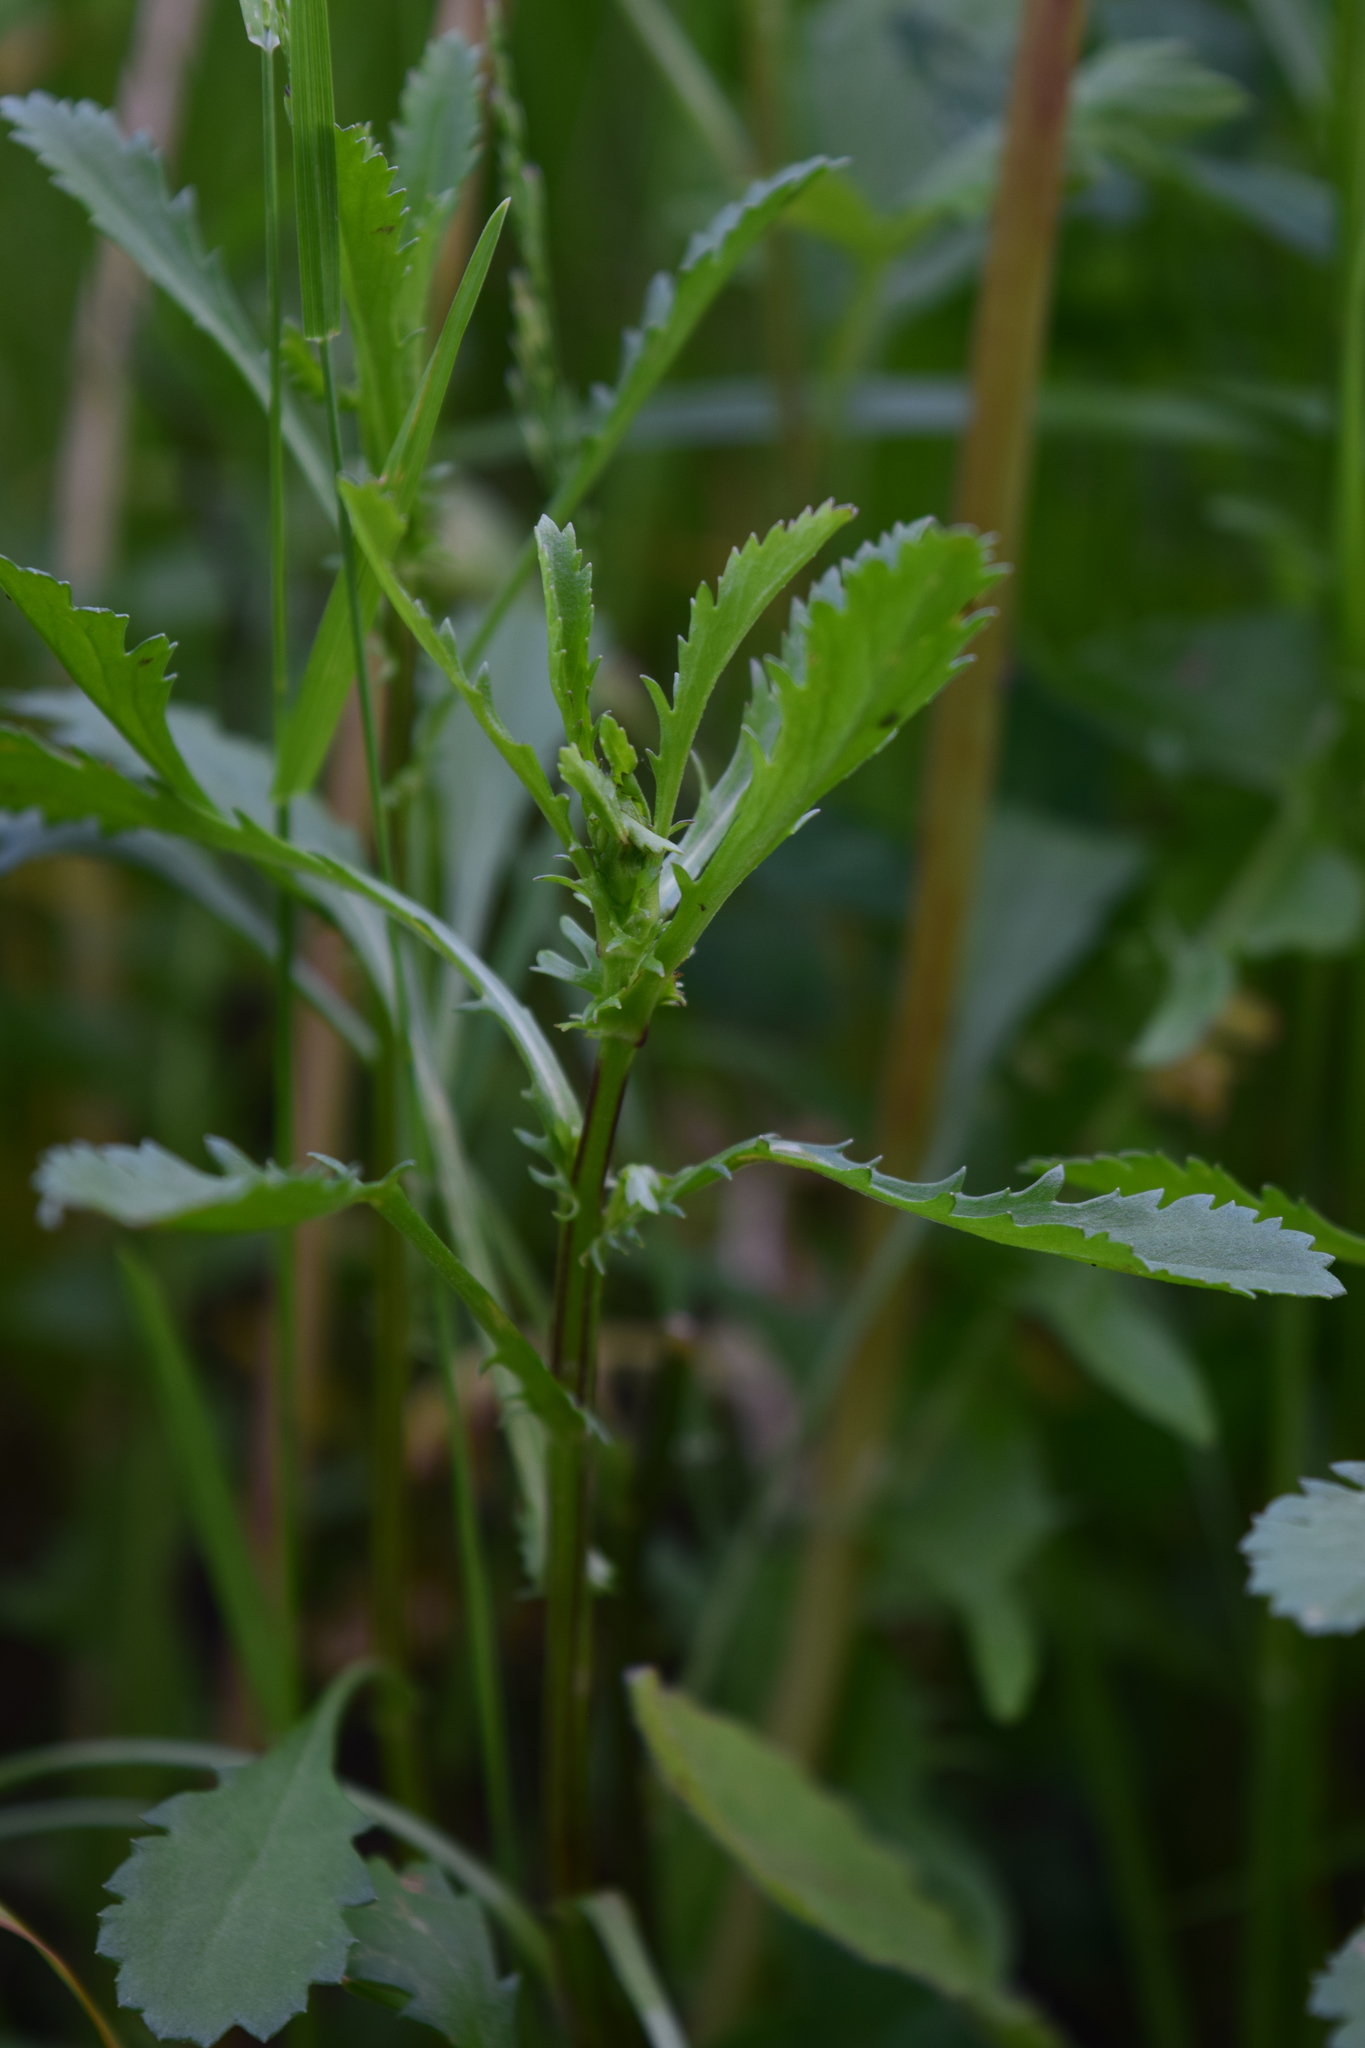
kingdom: Plantae
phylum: Tracheophyta
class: Magnoliopsida
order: Asterales
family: Asteraceae
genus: Leucanthemum
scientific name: Leucanthemum vulgare
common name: Oxeye daisy
